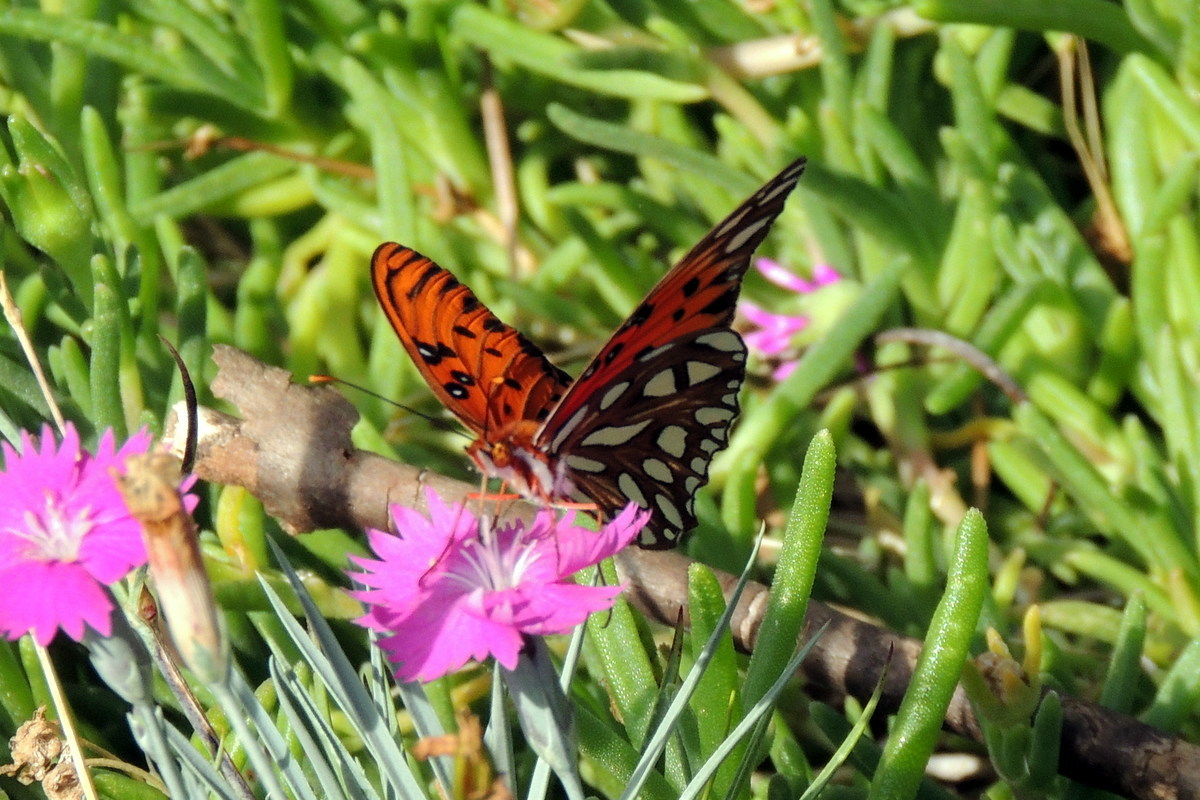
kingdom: Animalia
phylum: Arthropoda
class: Insecta
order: Lepidoptera
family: Nymphalidae
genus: Dione
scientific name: Dione vanillae
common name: Gulf fritillary
